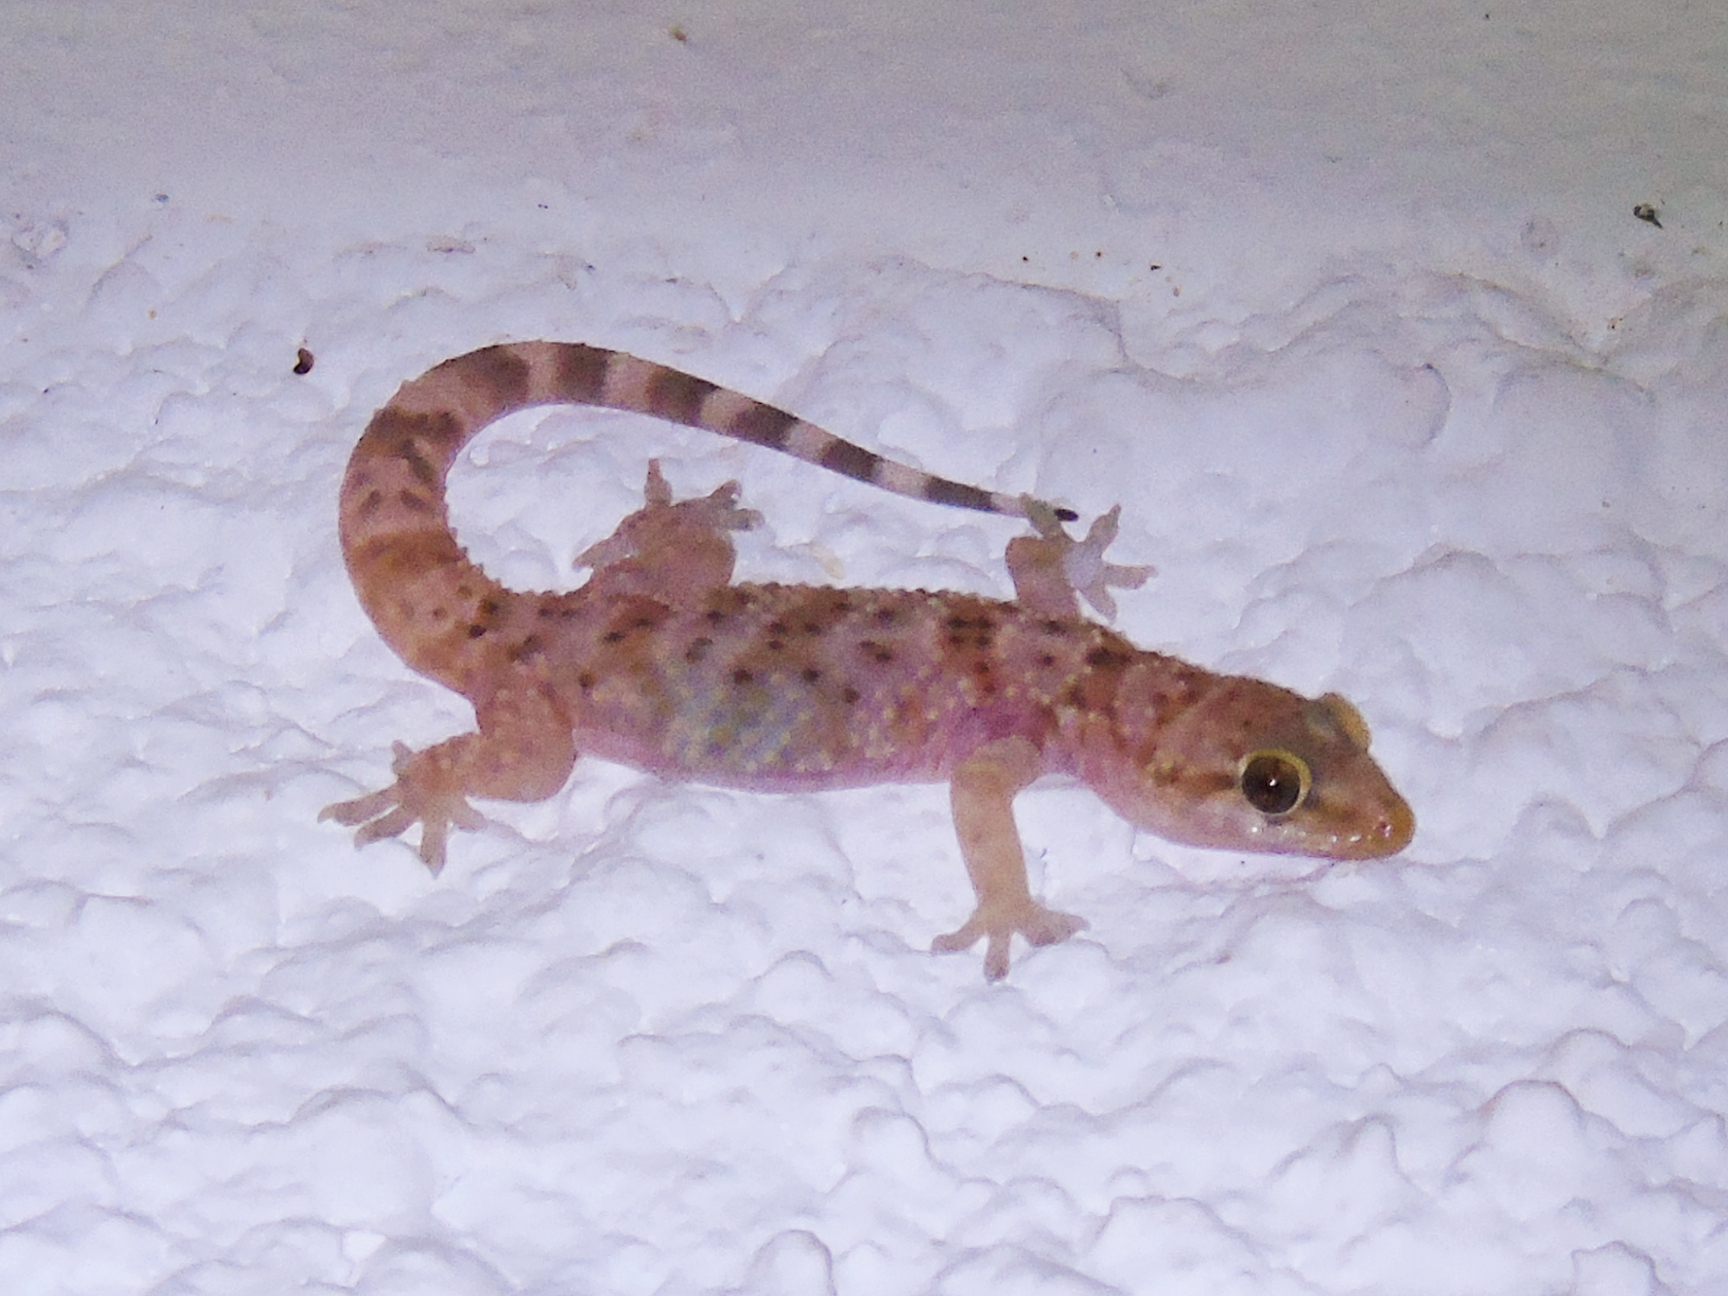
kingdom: Animalia
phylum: Chordata
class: Squamata
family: Gekkonidae
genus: Hemidactylus
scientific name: Hemidactylus turcicus
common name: Turkish gecko
